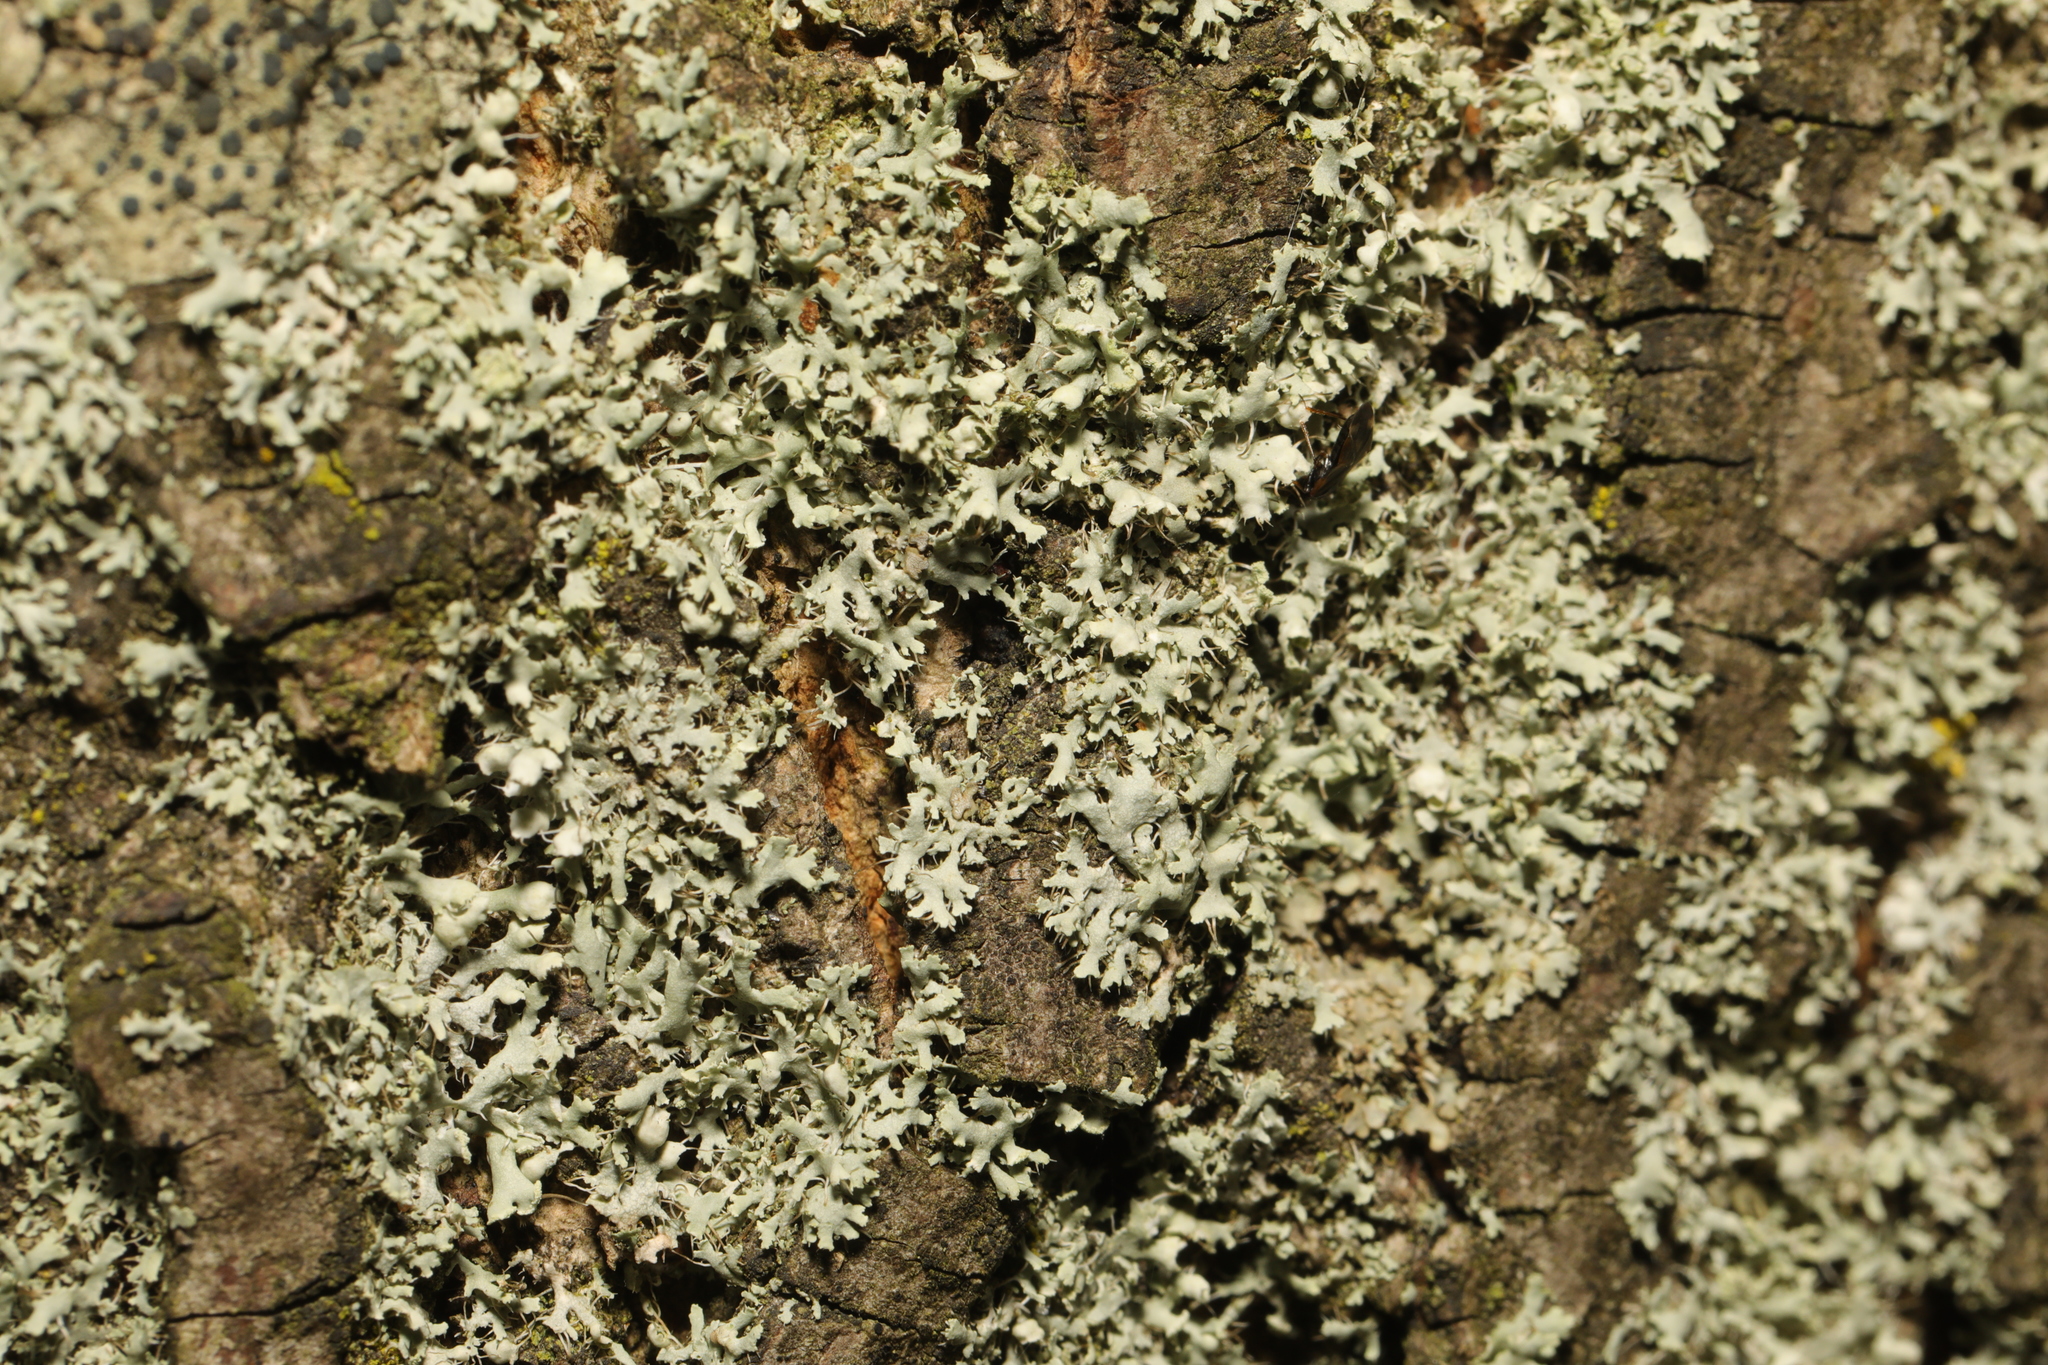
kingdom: Fungi
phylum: Ascomycota
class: Lecanoromycetes
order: Caliciales
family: Physciaceae
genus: Physcia
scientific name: Physcia adscendens
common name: Hooded rosette lichen
